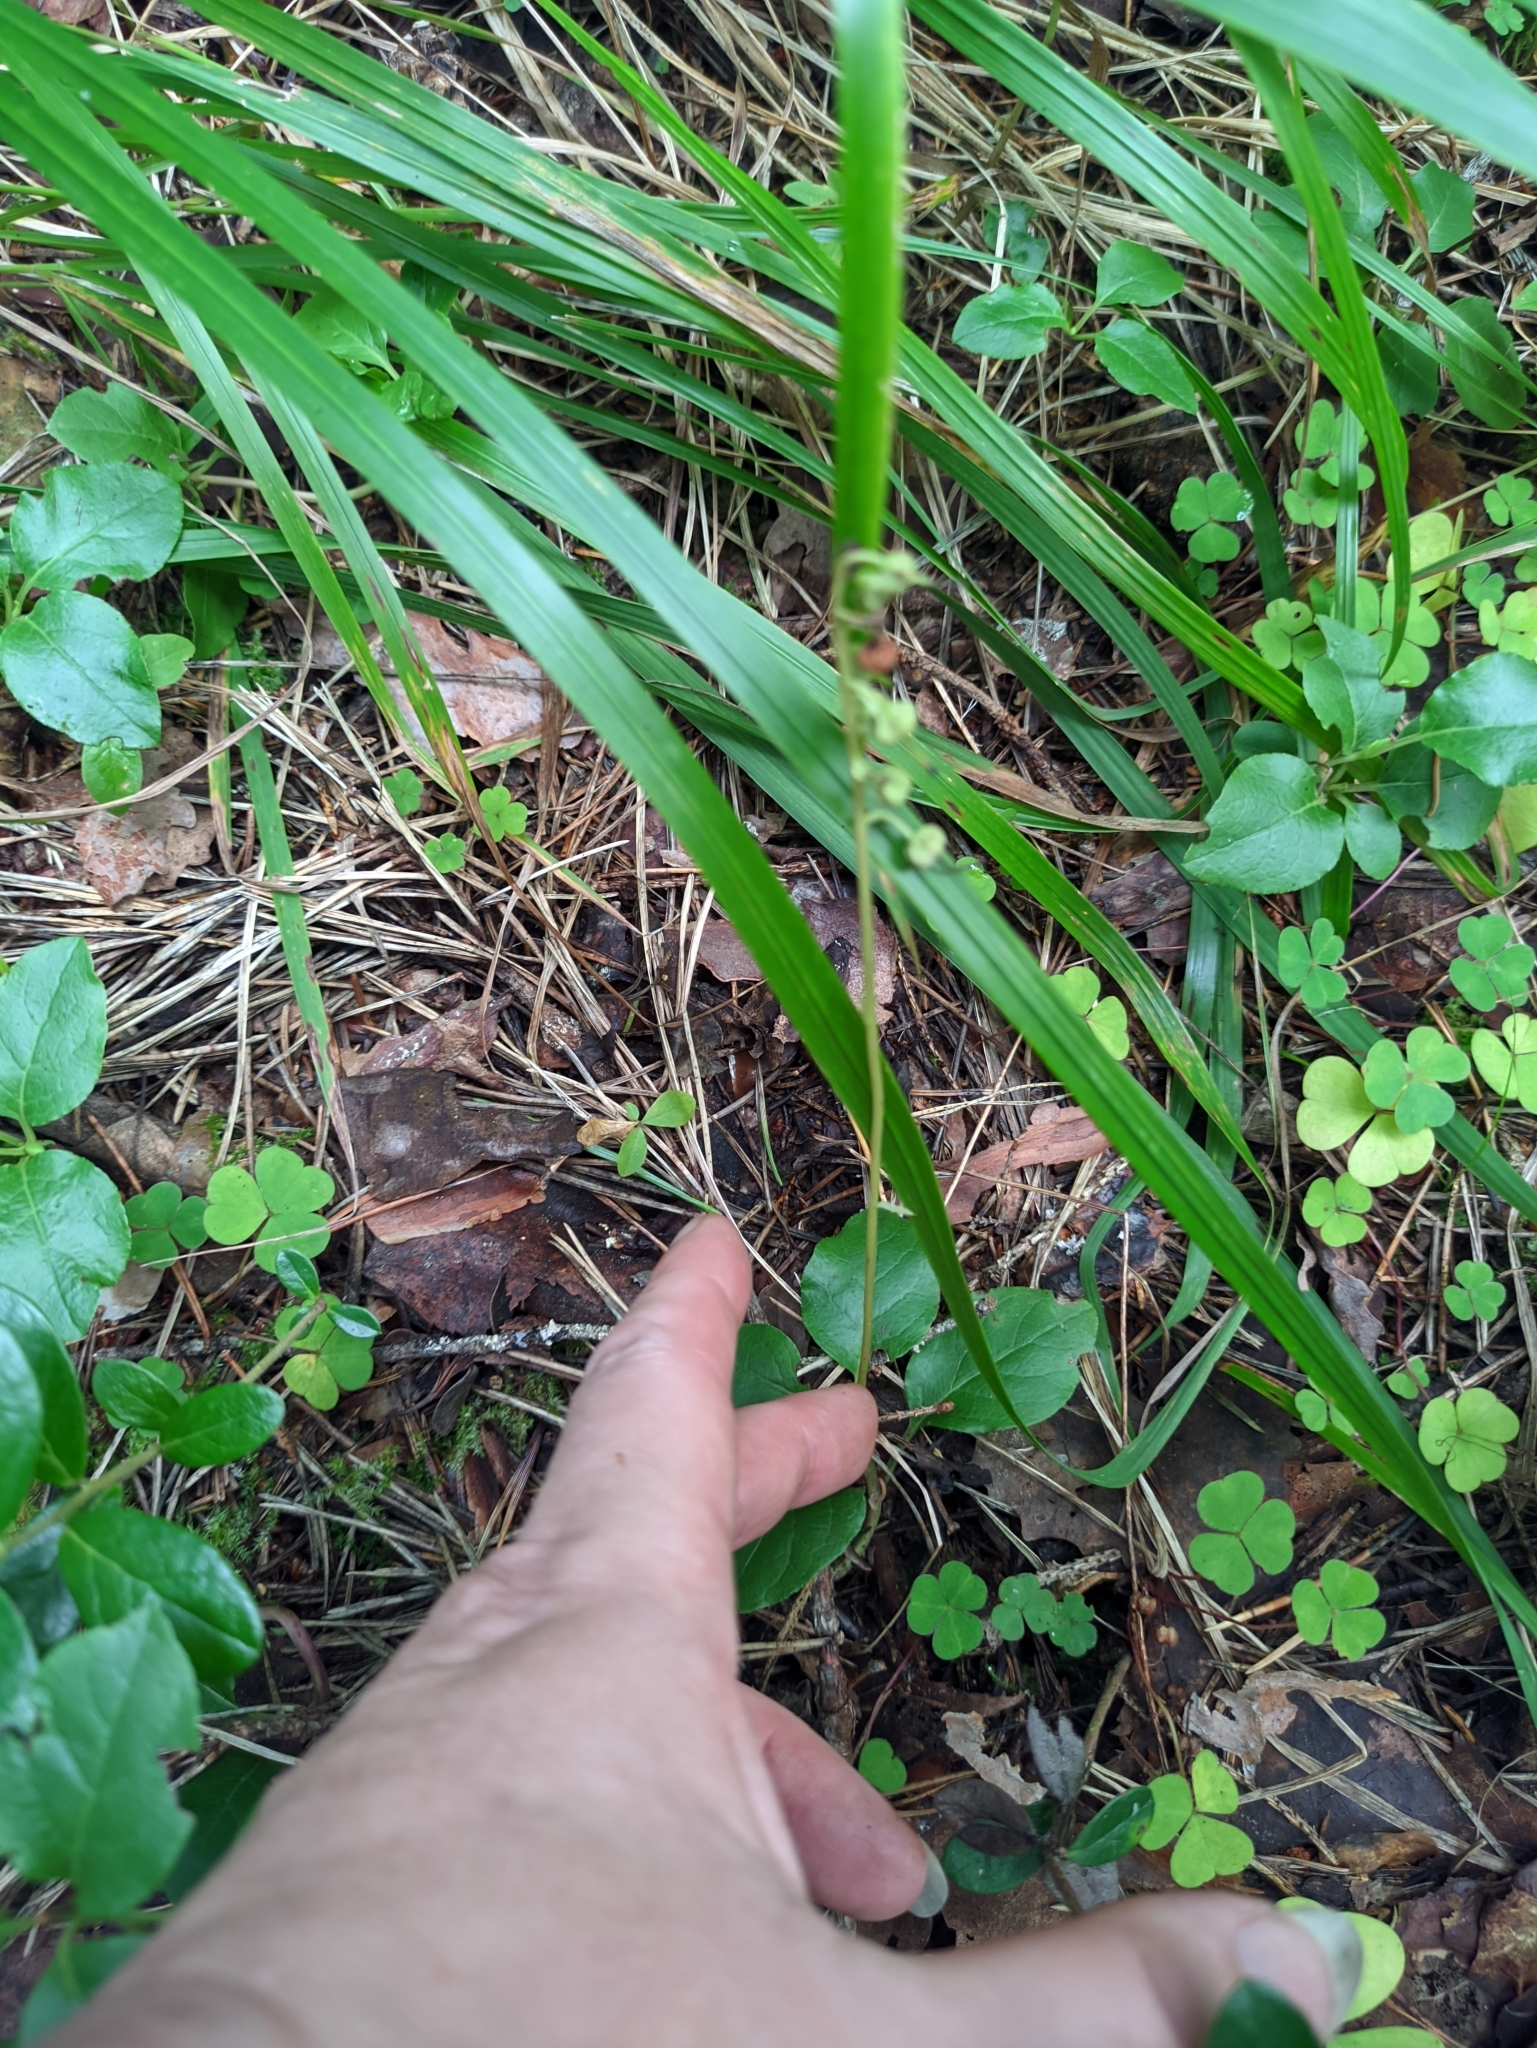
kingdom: Plantae
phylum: Tracheophyta
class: Magnoliopsida
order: Ericales
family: Ericaceae
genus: Orthilia
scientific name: Orthilia secunda
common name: One-sided orthilia
